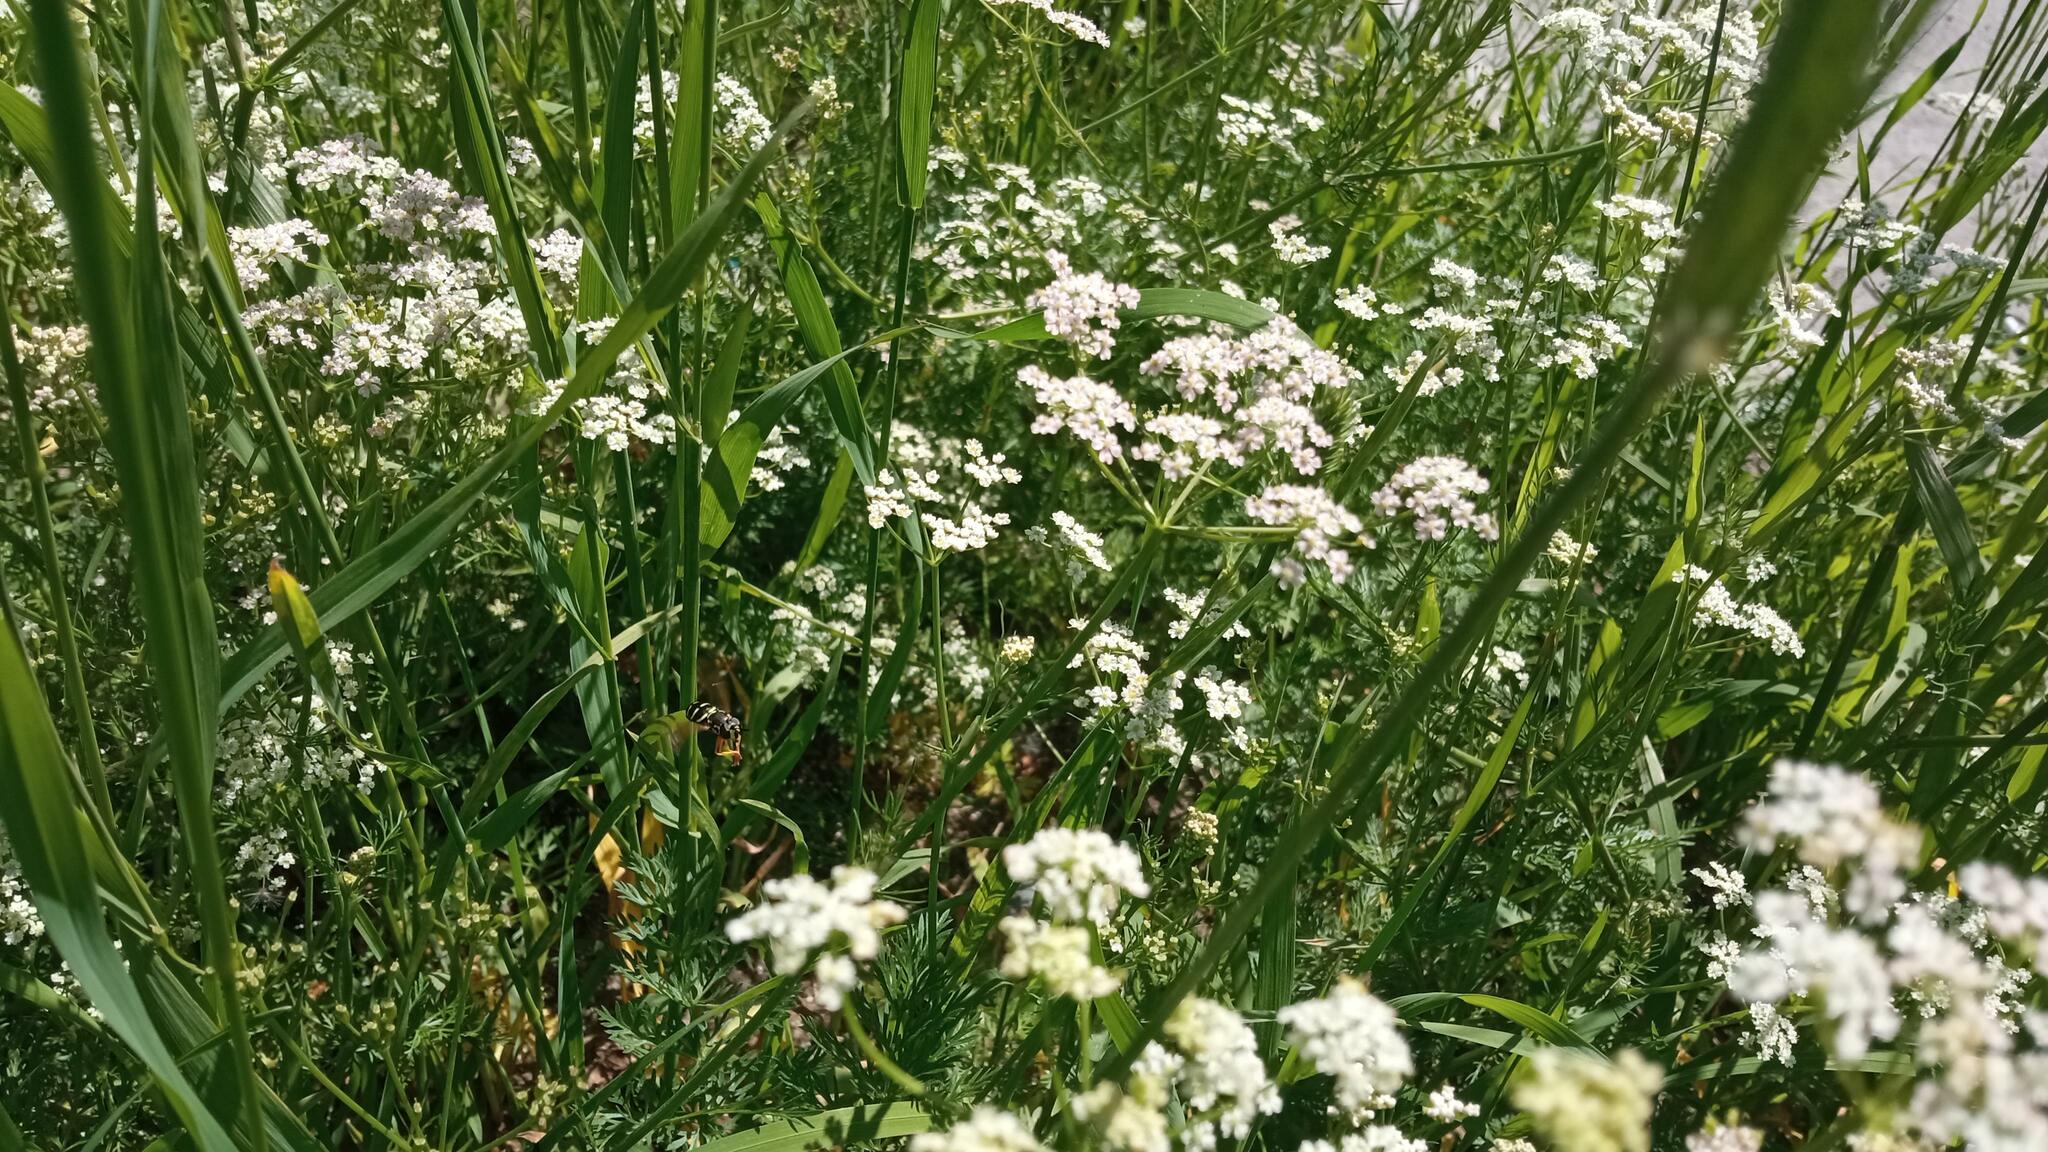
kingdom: Plantae
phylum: Tracheophyta
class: Magnoliopsida
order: Apiales
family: Apiaceae
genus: Carum
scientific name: Carum carvi
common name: Caraway
